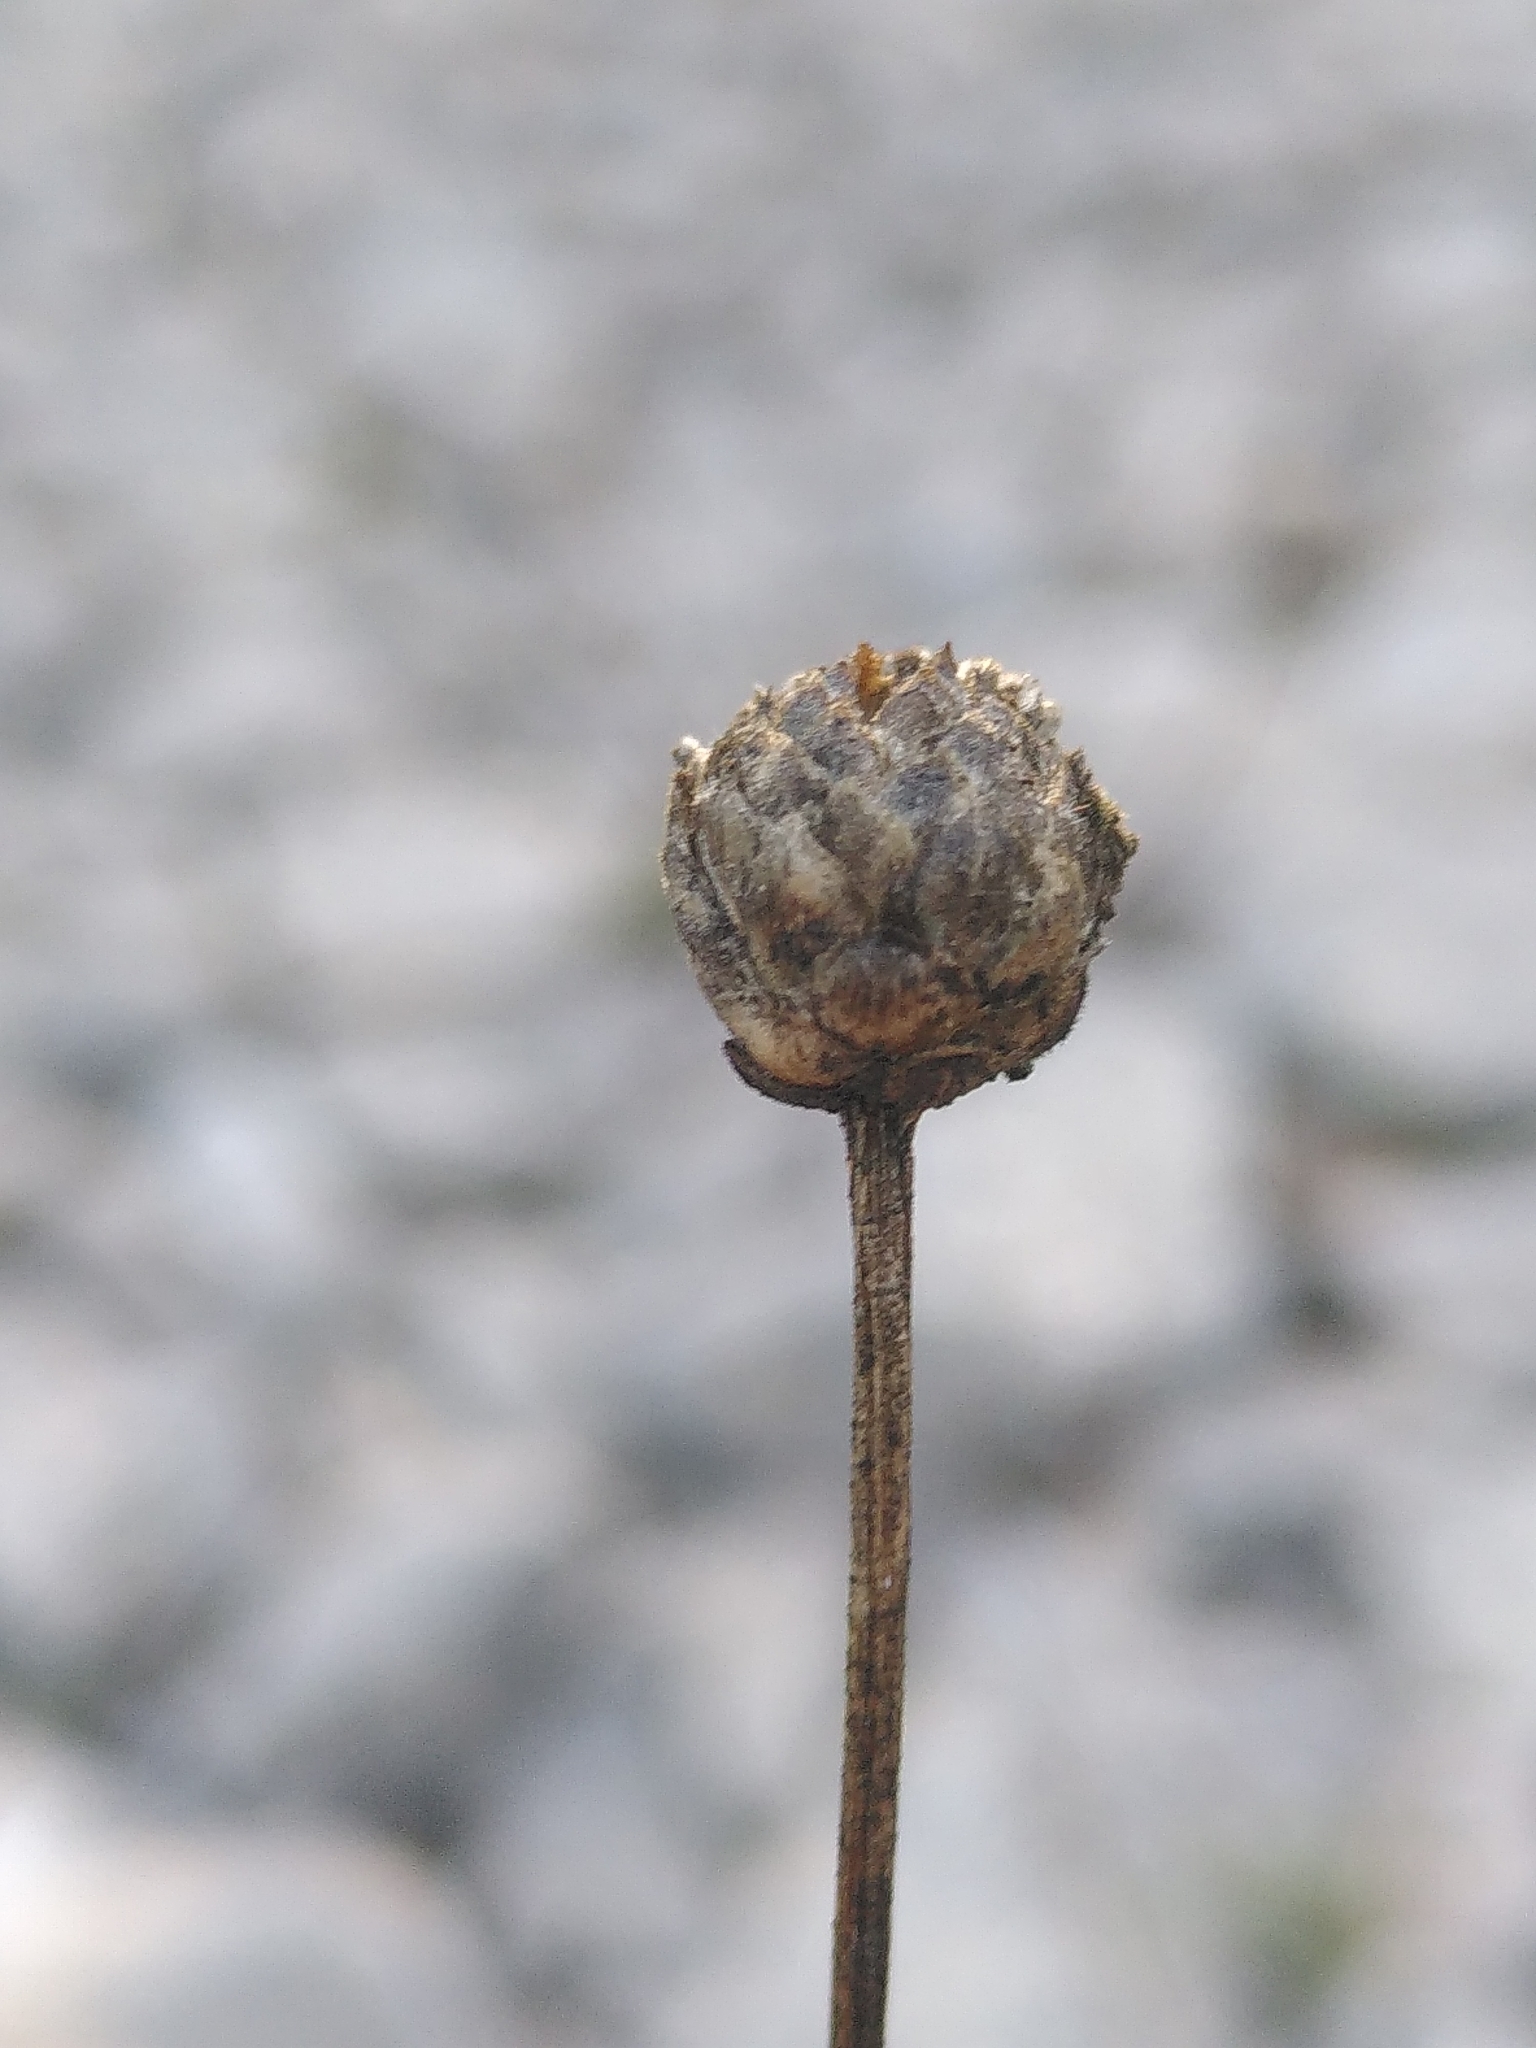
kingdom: Plantae
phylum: Tracheophyta
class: Magnoliopsida
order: Dipsacales
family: Caprifoliaceae
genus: Cephalaria
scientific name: Cephalaria leucantha
